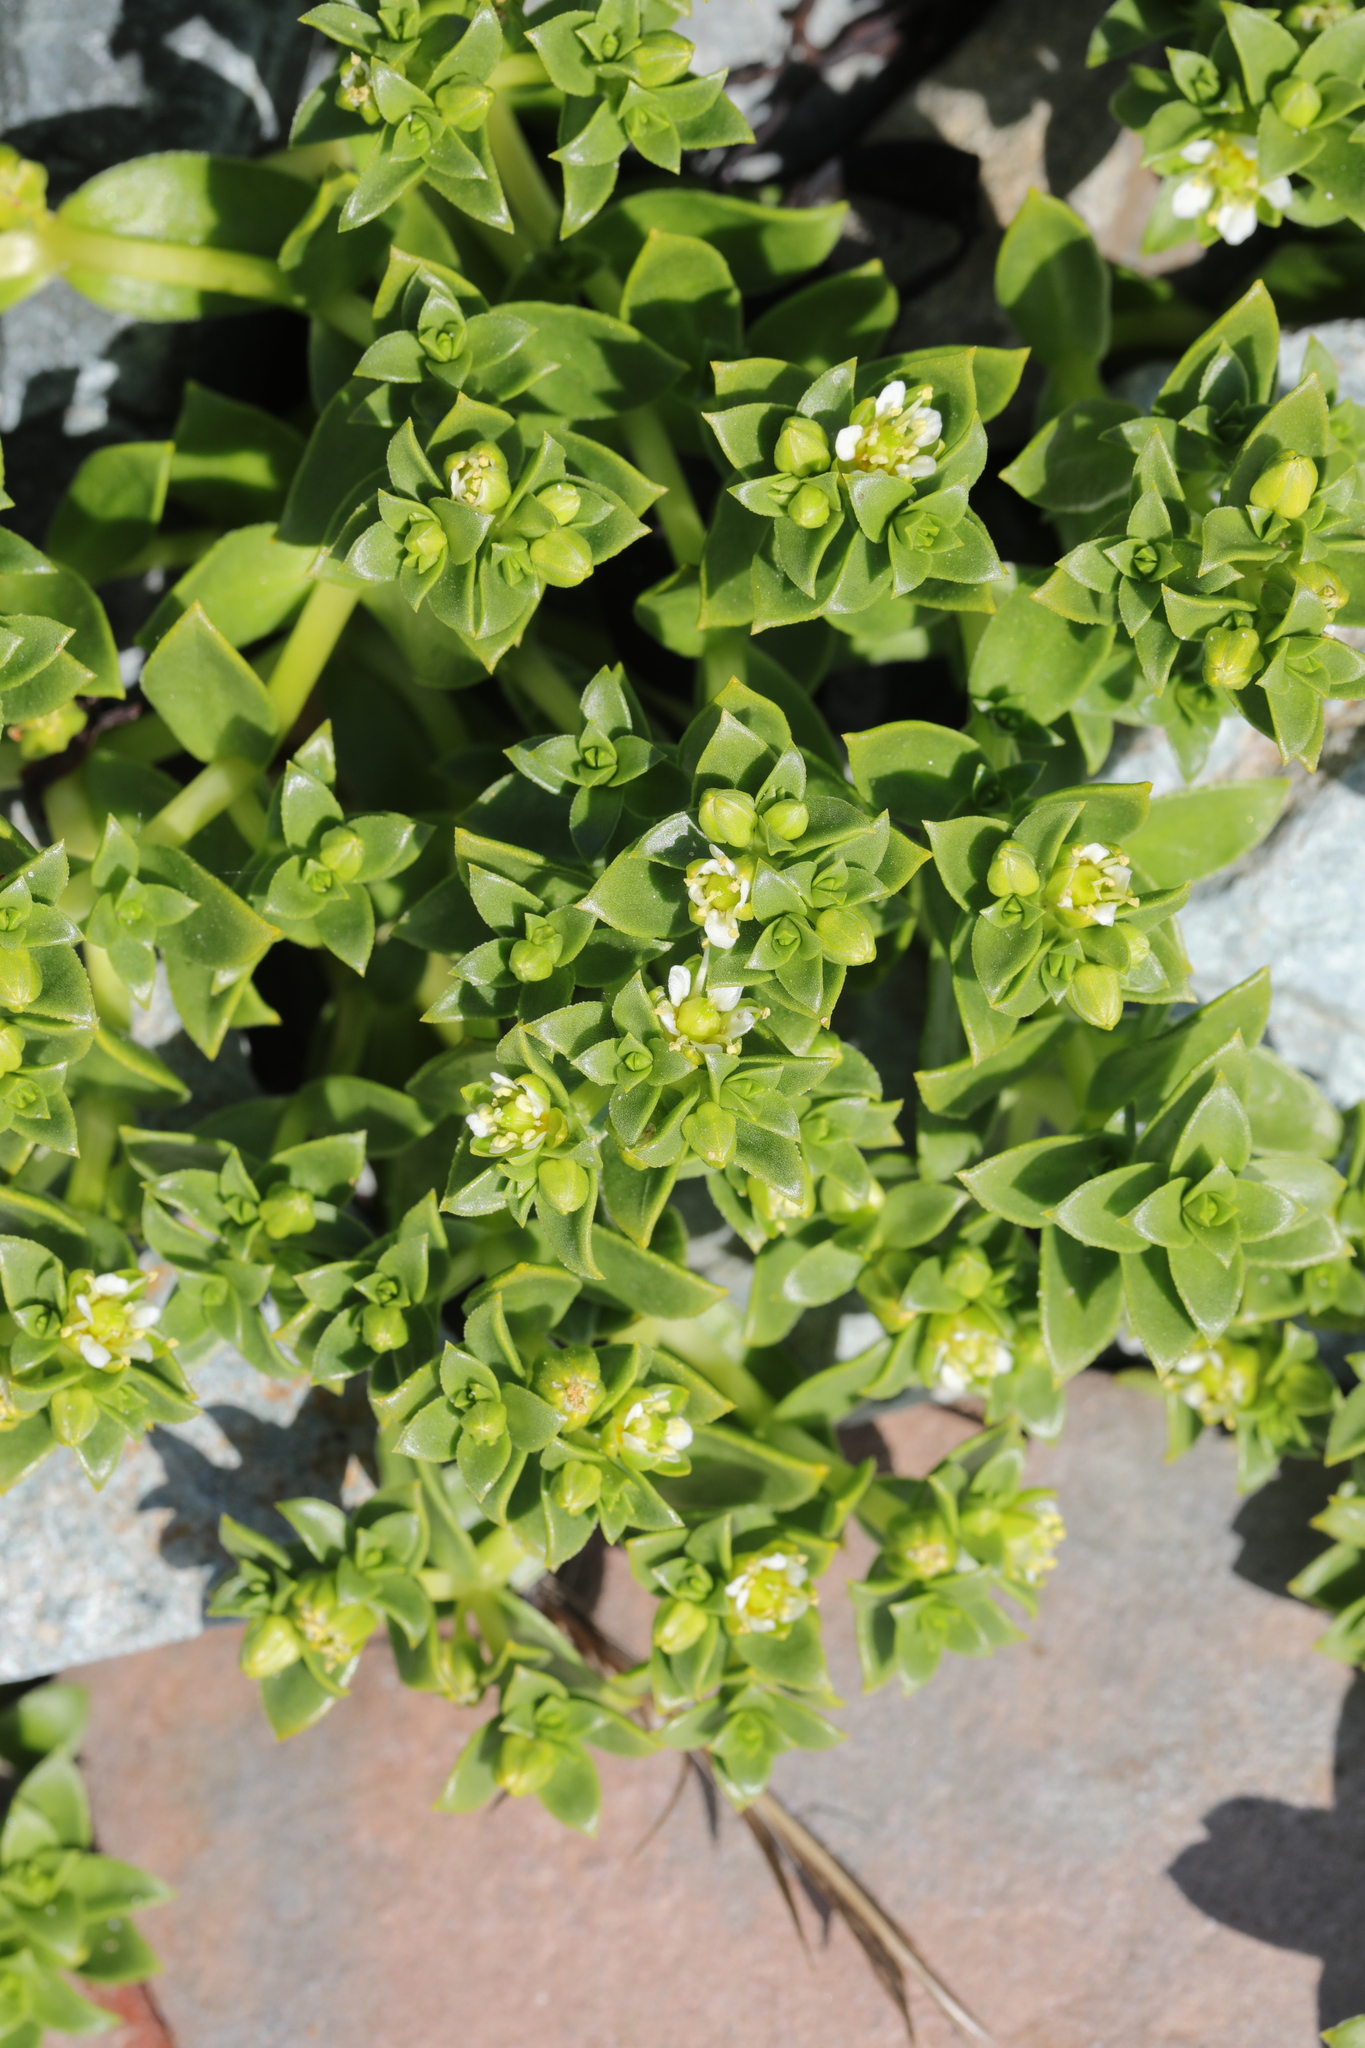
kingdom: Plantae
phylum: Tracheophyta
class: Magnoliopsida
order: Caryophyllales
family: Caryophyllaceae
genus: Honckenya
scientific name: Honckenya peploides
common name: Sea sandwort
